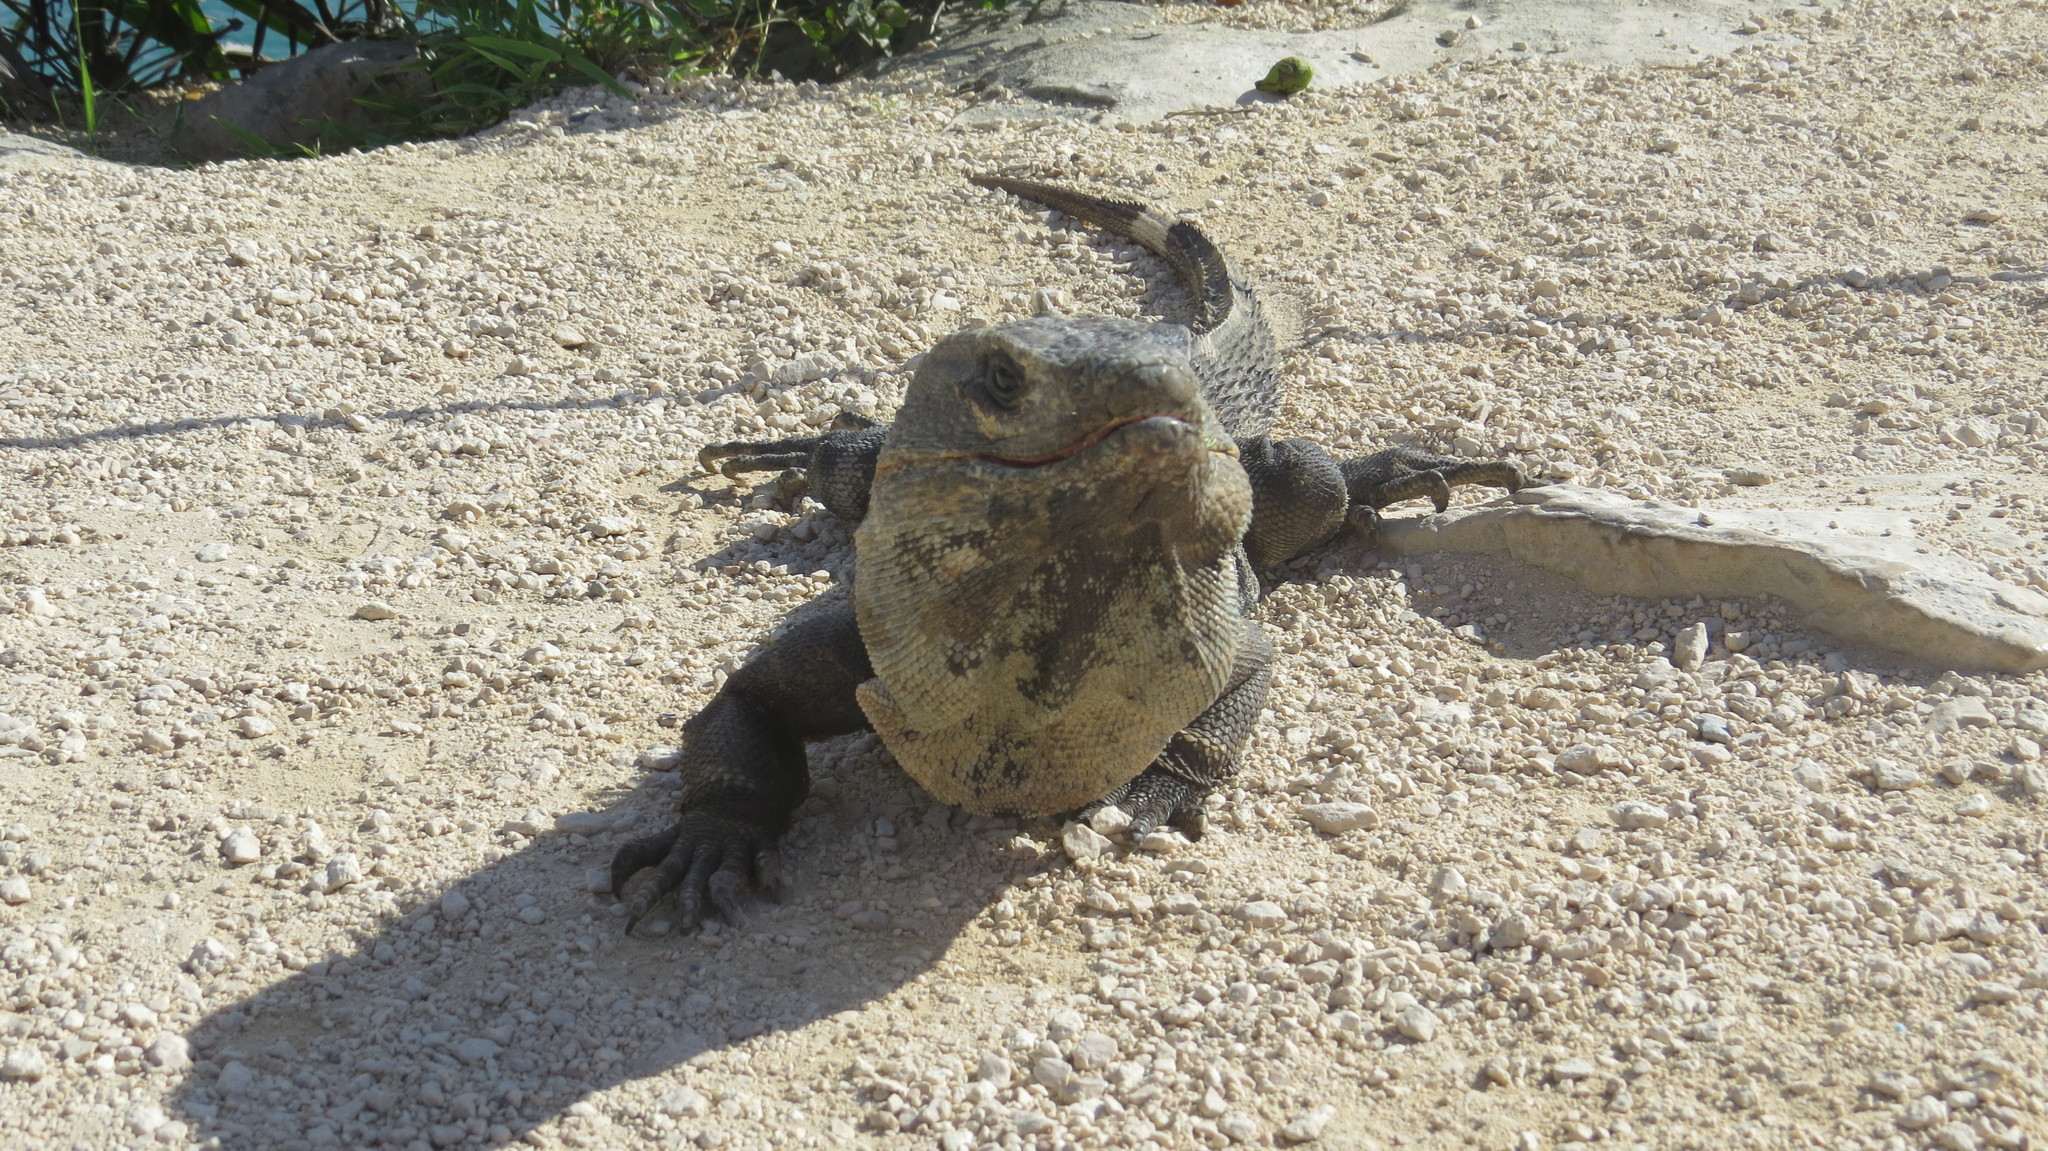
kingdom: Animalia
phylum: Chordata
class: Squamata
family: Iguanidae
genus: Ctenosaura
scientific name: Ctenosaura similis
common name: Black spiny-tailed iguana
